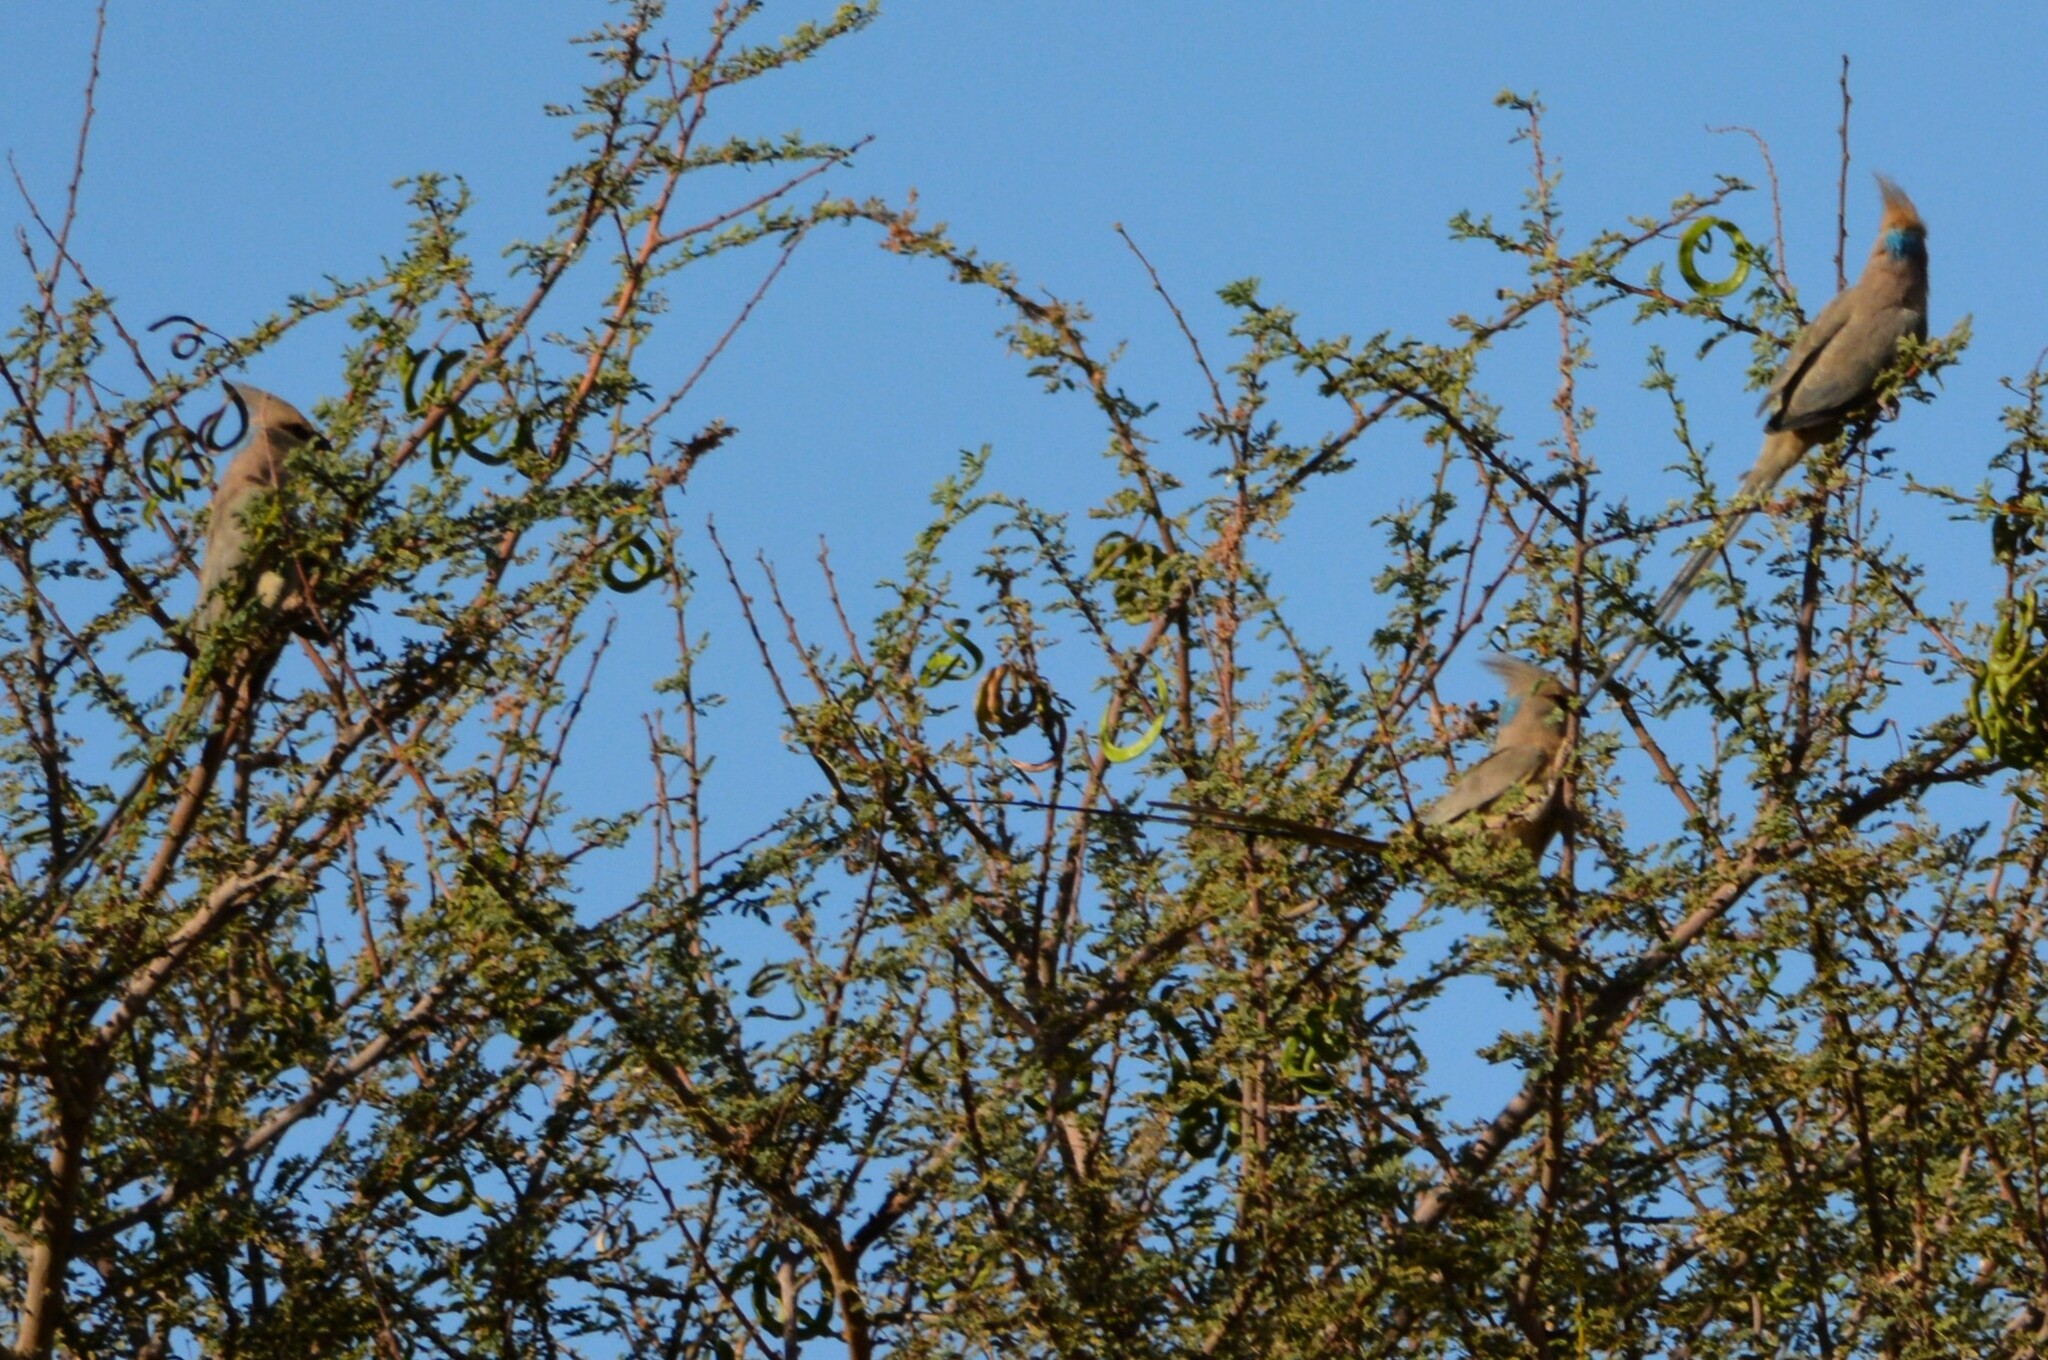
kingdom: Animalia
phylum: Chordata
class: Aves
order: Coliiformes
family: Coliidae
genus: Urocolius
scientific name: Urocolius macrourus
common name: Blue-naped mousebird
